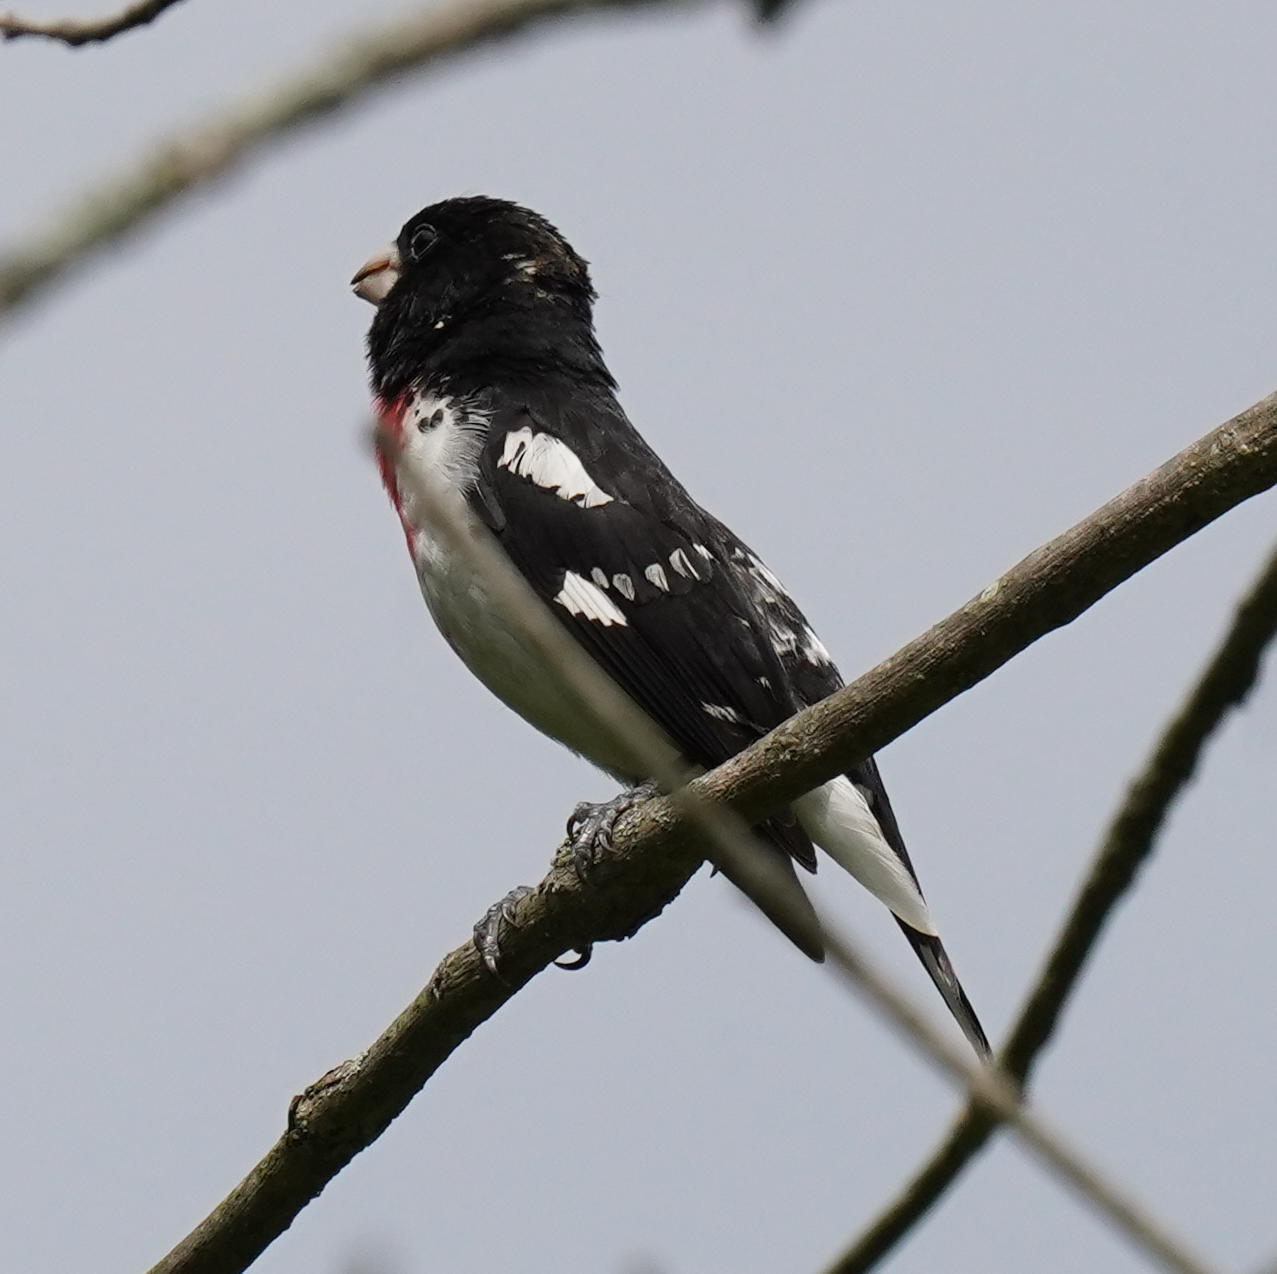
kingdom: Animalia
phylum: Chordata
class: Aves
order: Passeriformes
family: Cardinalidae
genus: Pheucticus
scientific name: Pheucticus ludovicianus
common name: Rose-breasted grosbeak
